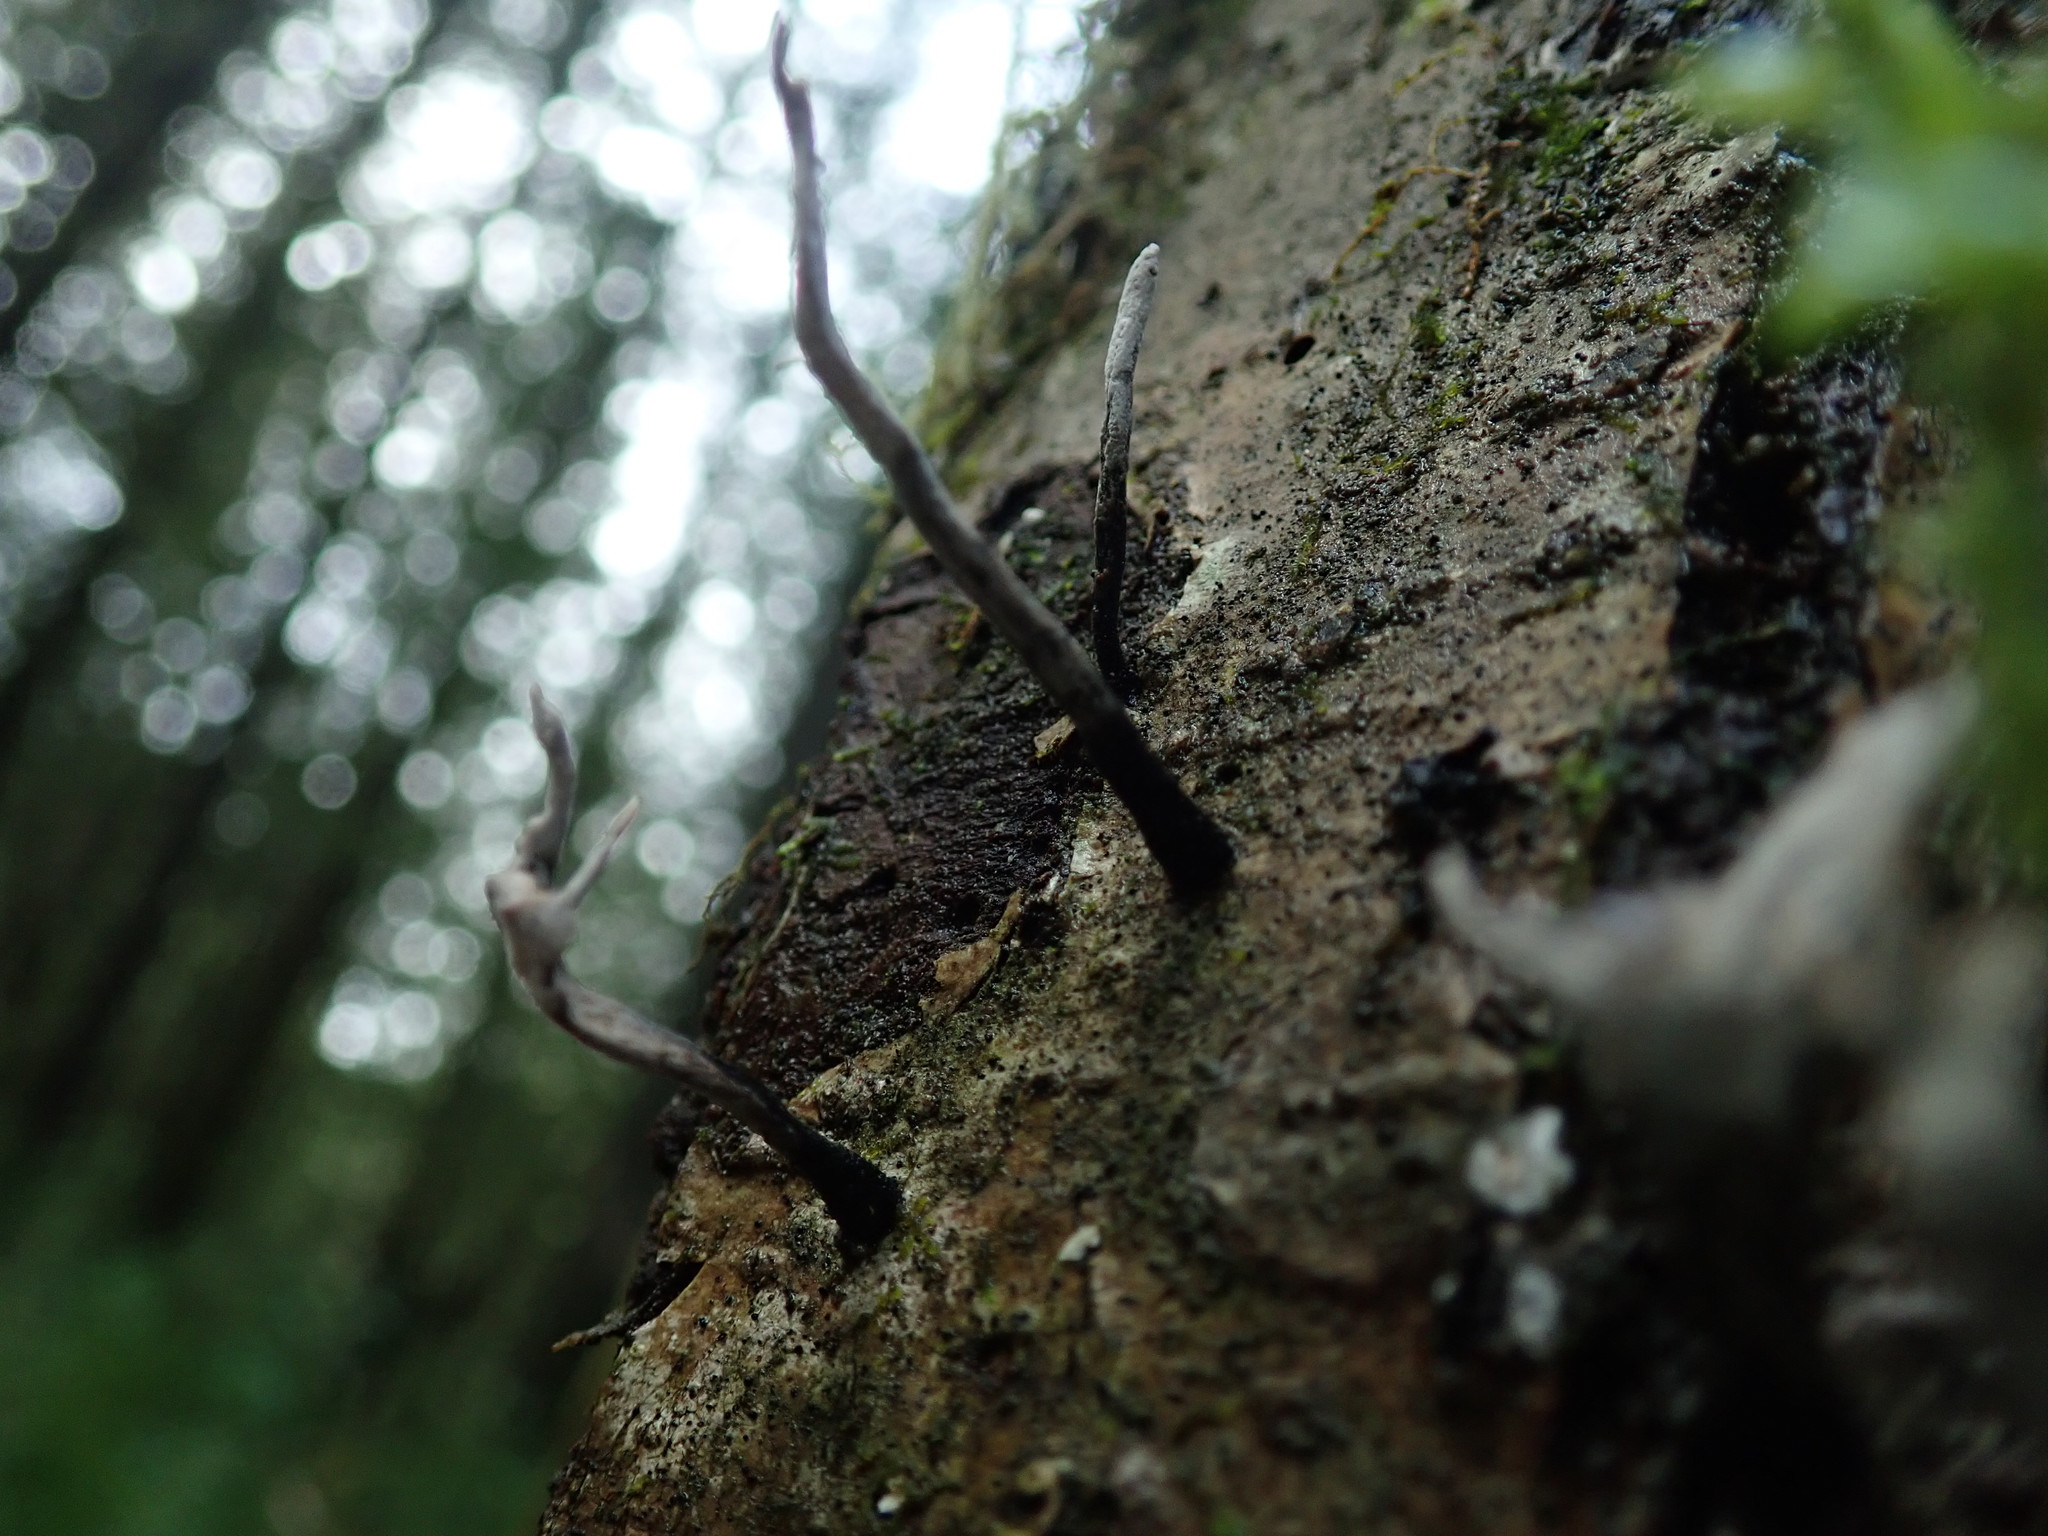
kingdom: Fungi
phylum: Ascomycota
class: Sordariomycetes
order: Xylariales
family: Xylariaceae
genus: Xylaria
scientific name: Xylaria hypoxylon
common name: Candle-snuff fungus
